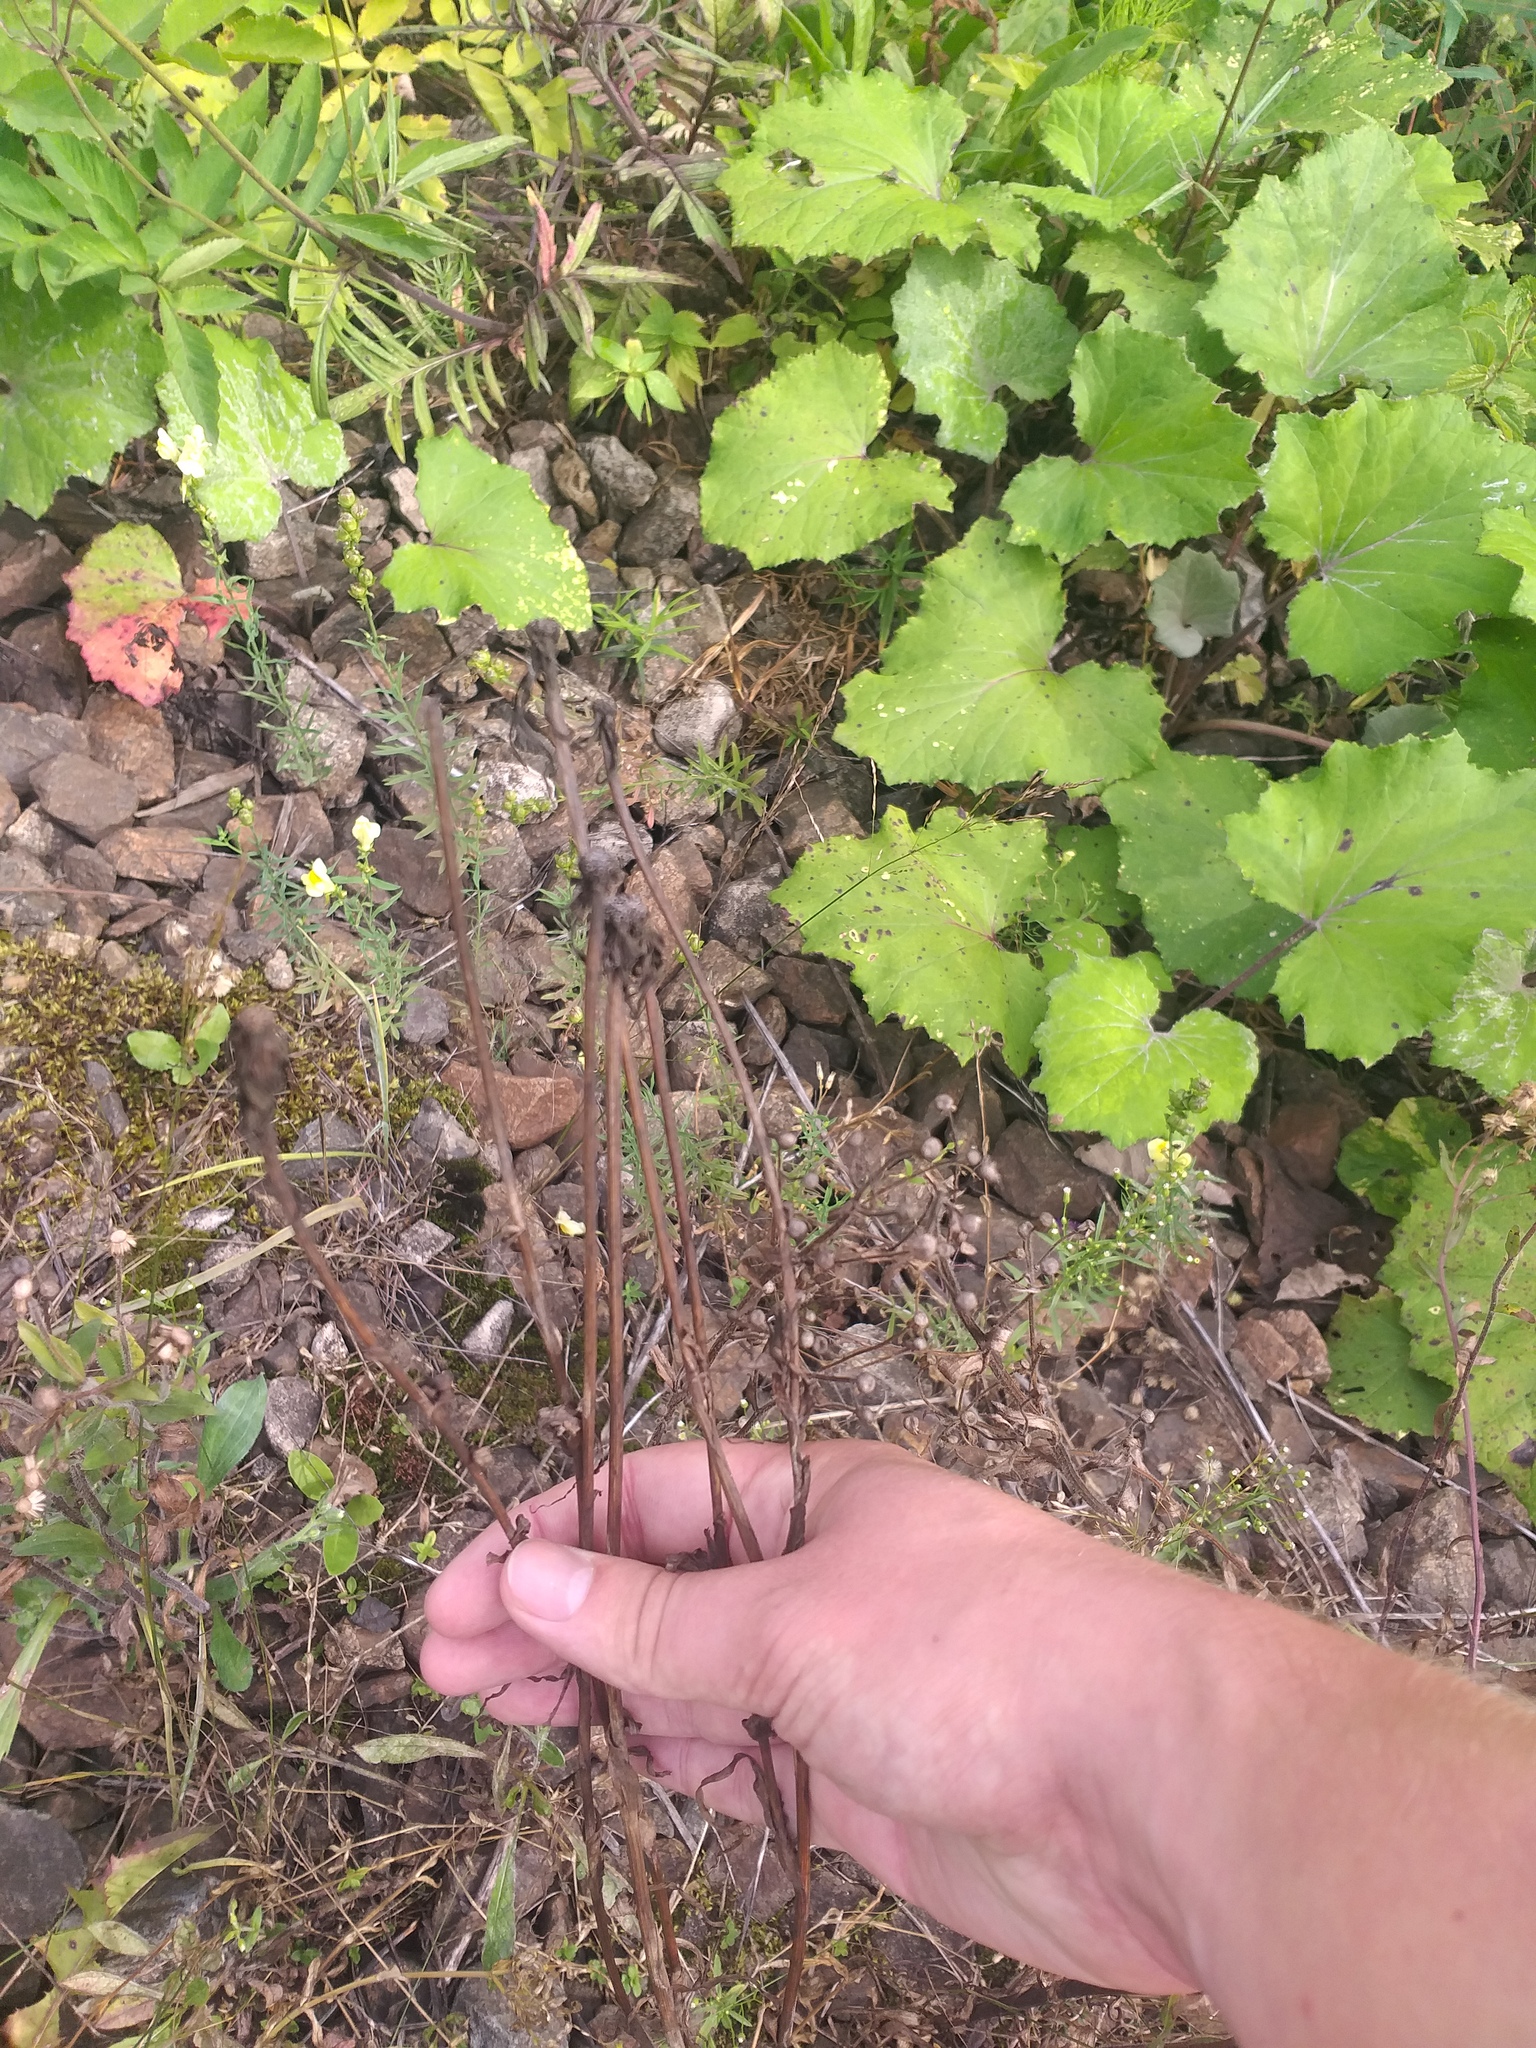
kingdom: Plantae
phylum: Tracheophyta
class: Magnoliopsida
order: Asterales
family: Asteraceae
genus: Tragopogon
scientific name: Tragopogon dubius
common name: Yellow salsify
